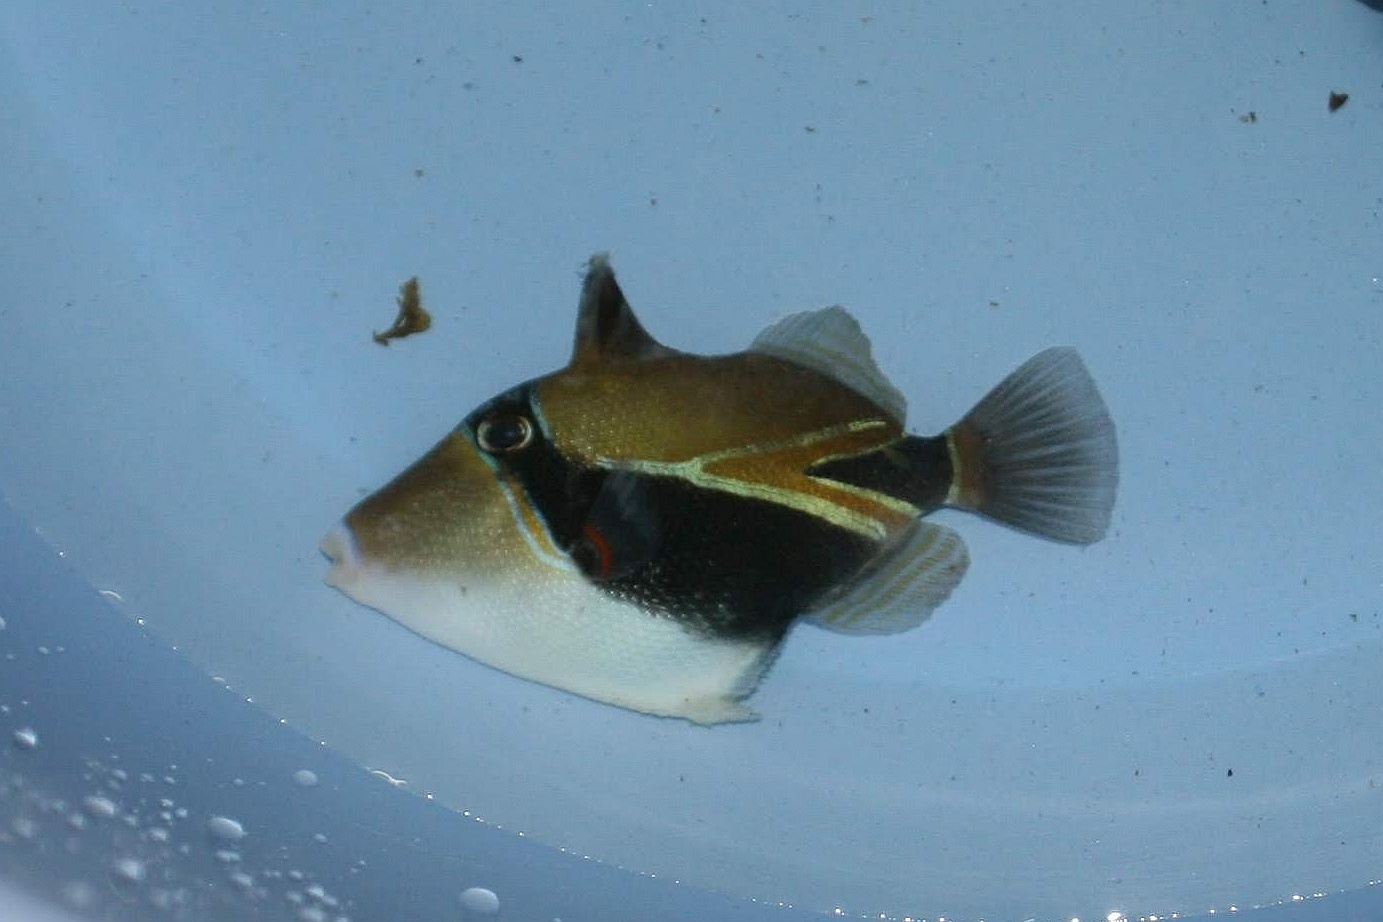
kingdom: Animalia
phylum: Chordata
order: Tetraodontiformes
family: Balistidae
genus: Rhinecanthus
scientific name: Rhinecanthus rectangulus
